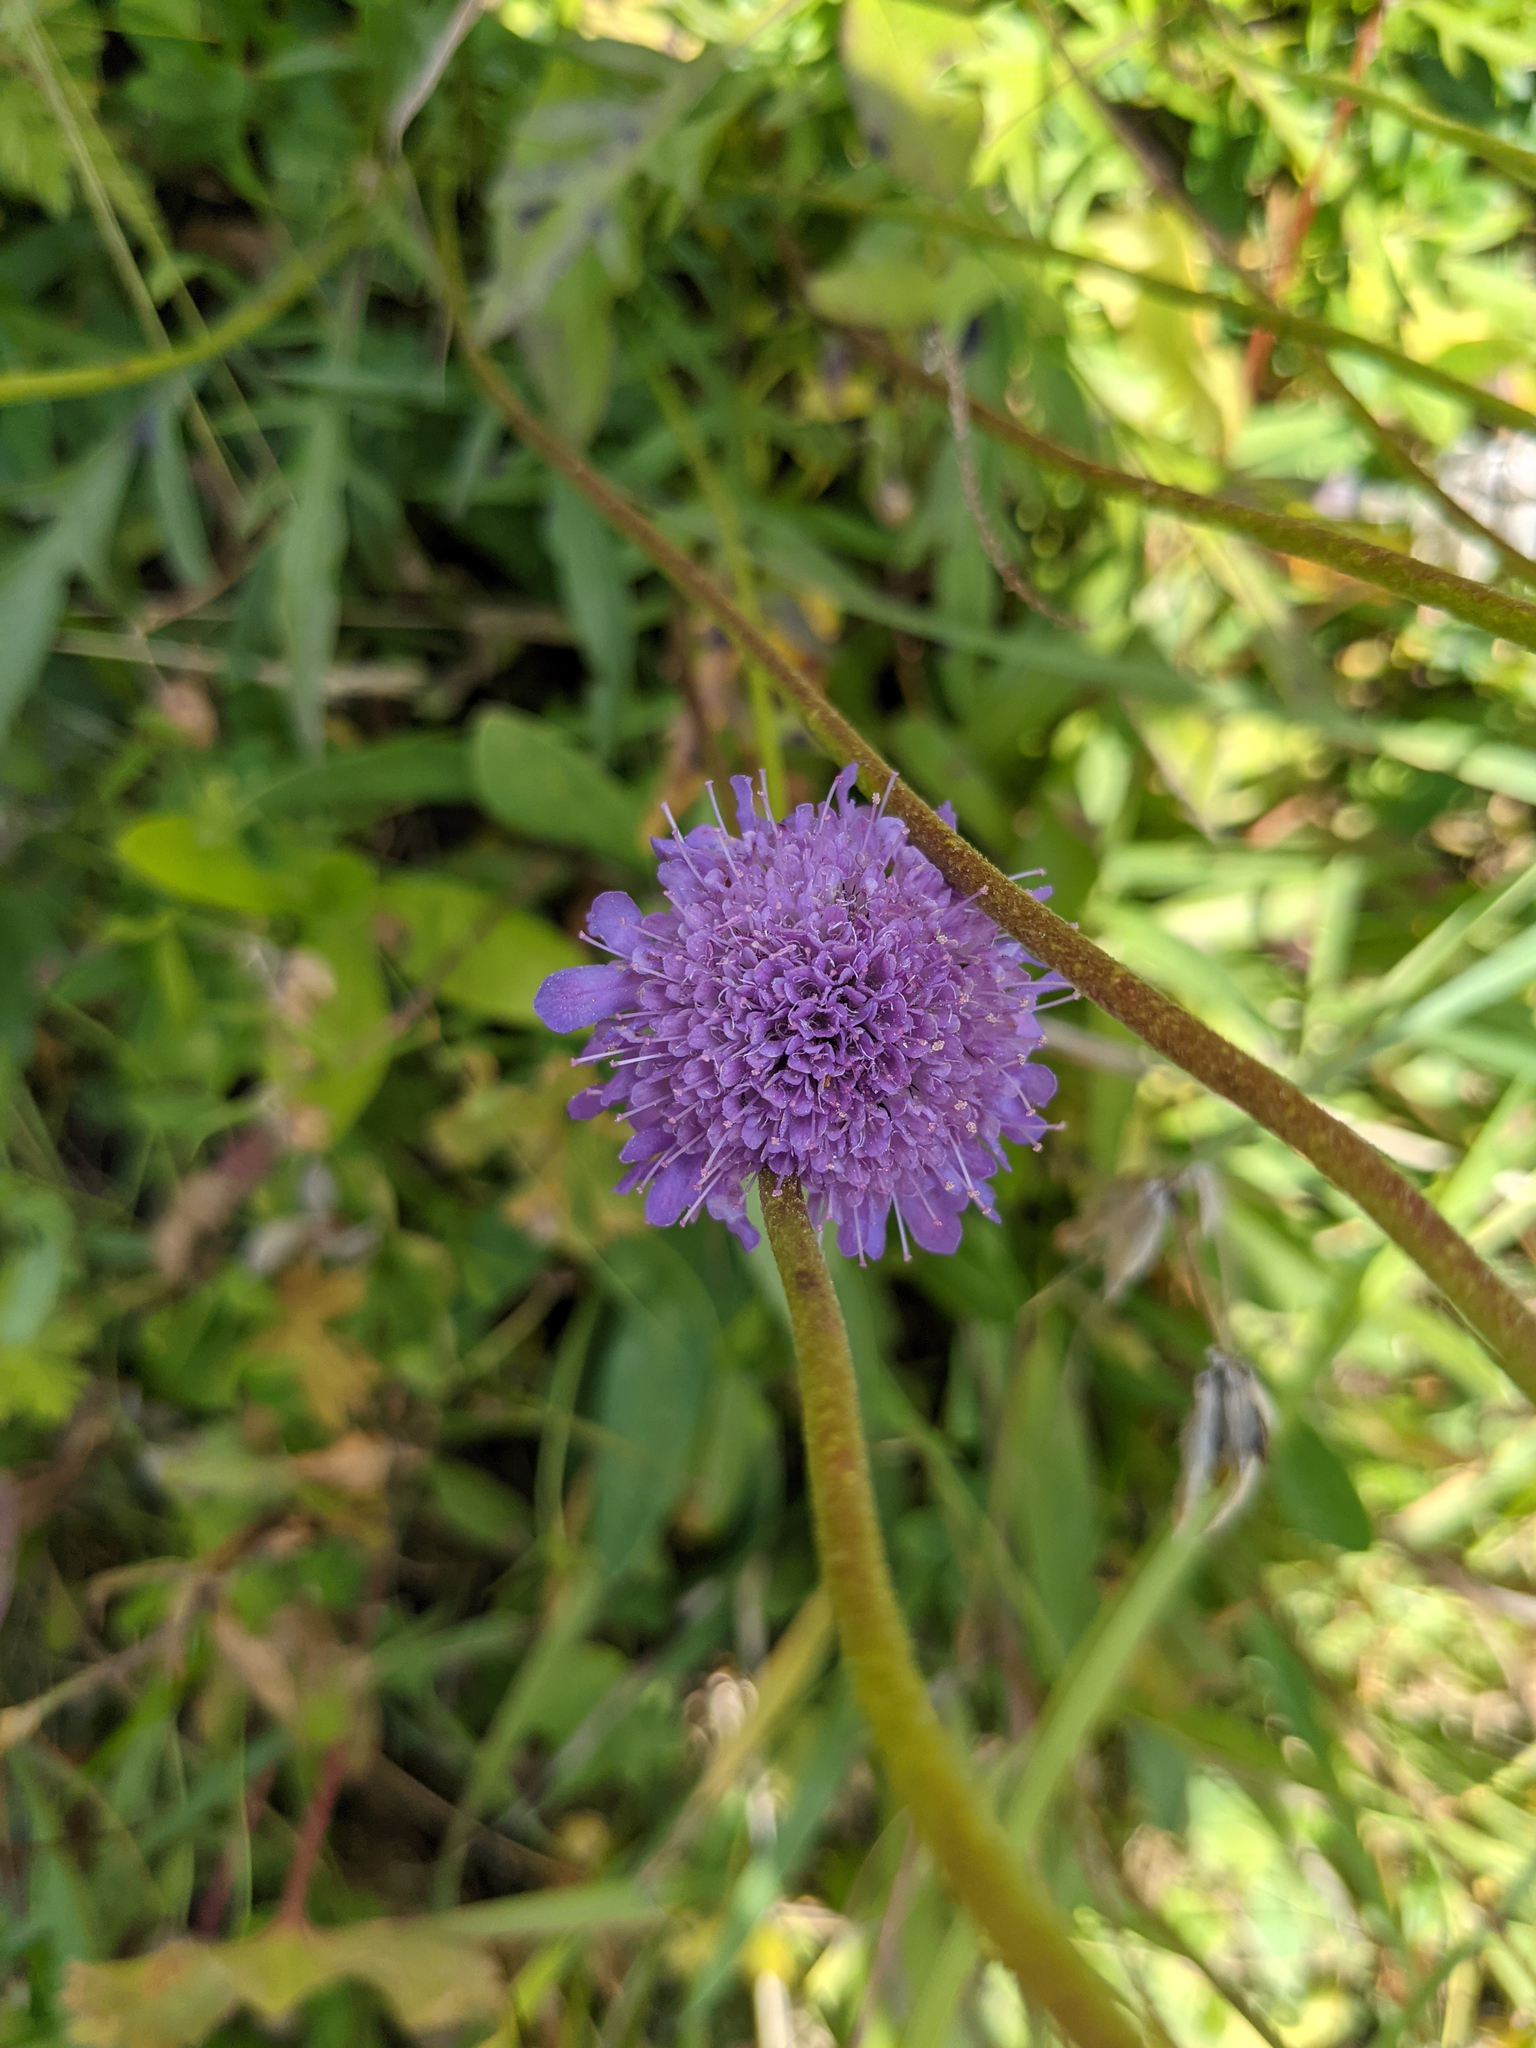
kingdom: Plantae
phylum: Tracheophyta
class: Magnoliopsida
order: Dipsacales
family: Caprifoliaceae
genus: Scabiosa
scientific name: Scabiosa lucida
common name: Shining scabious
